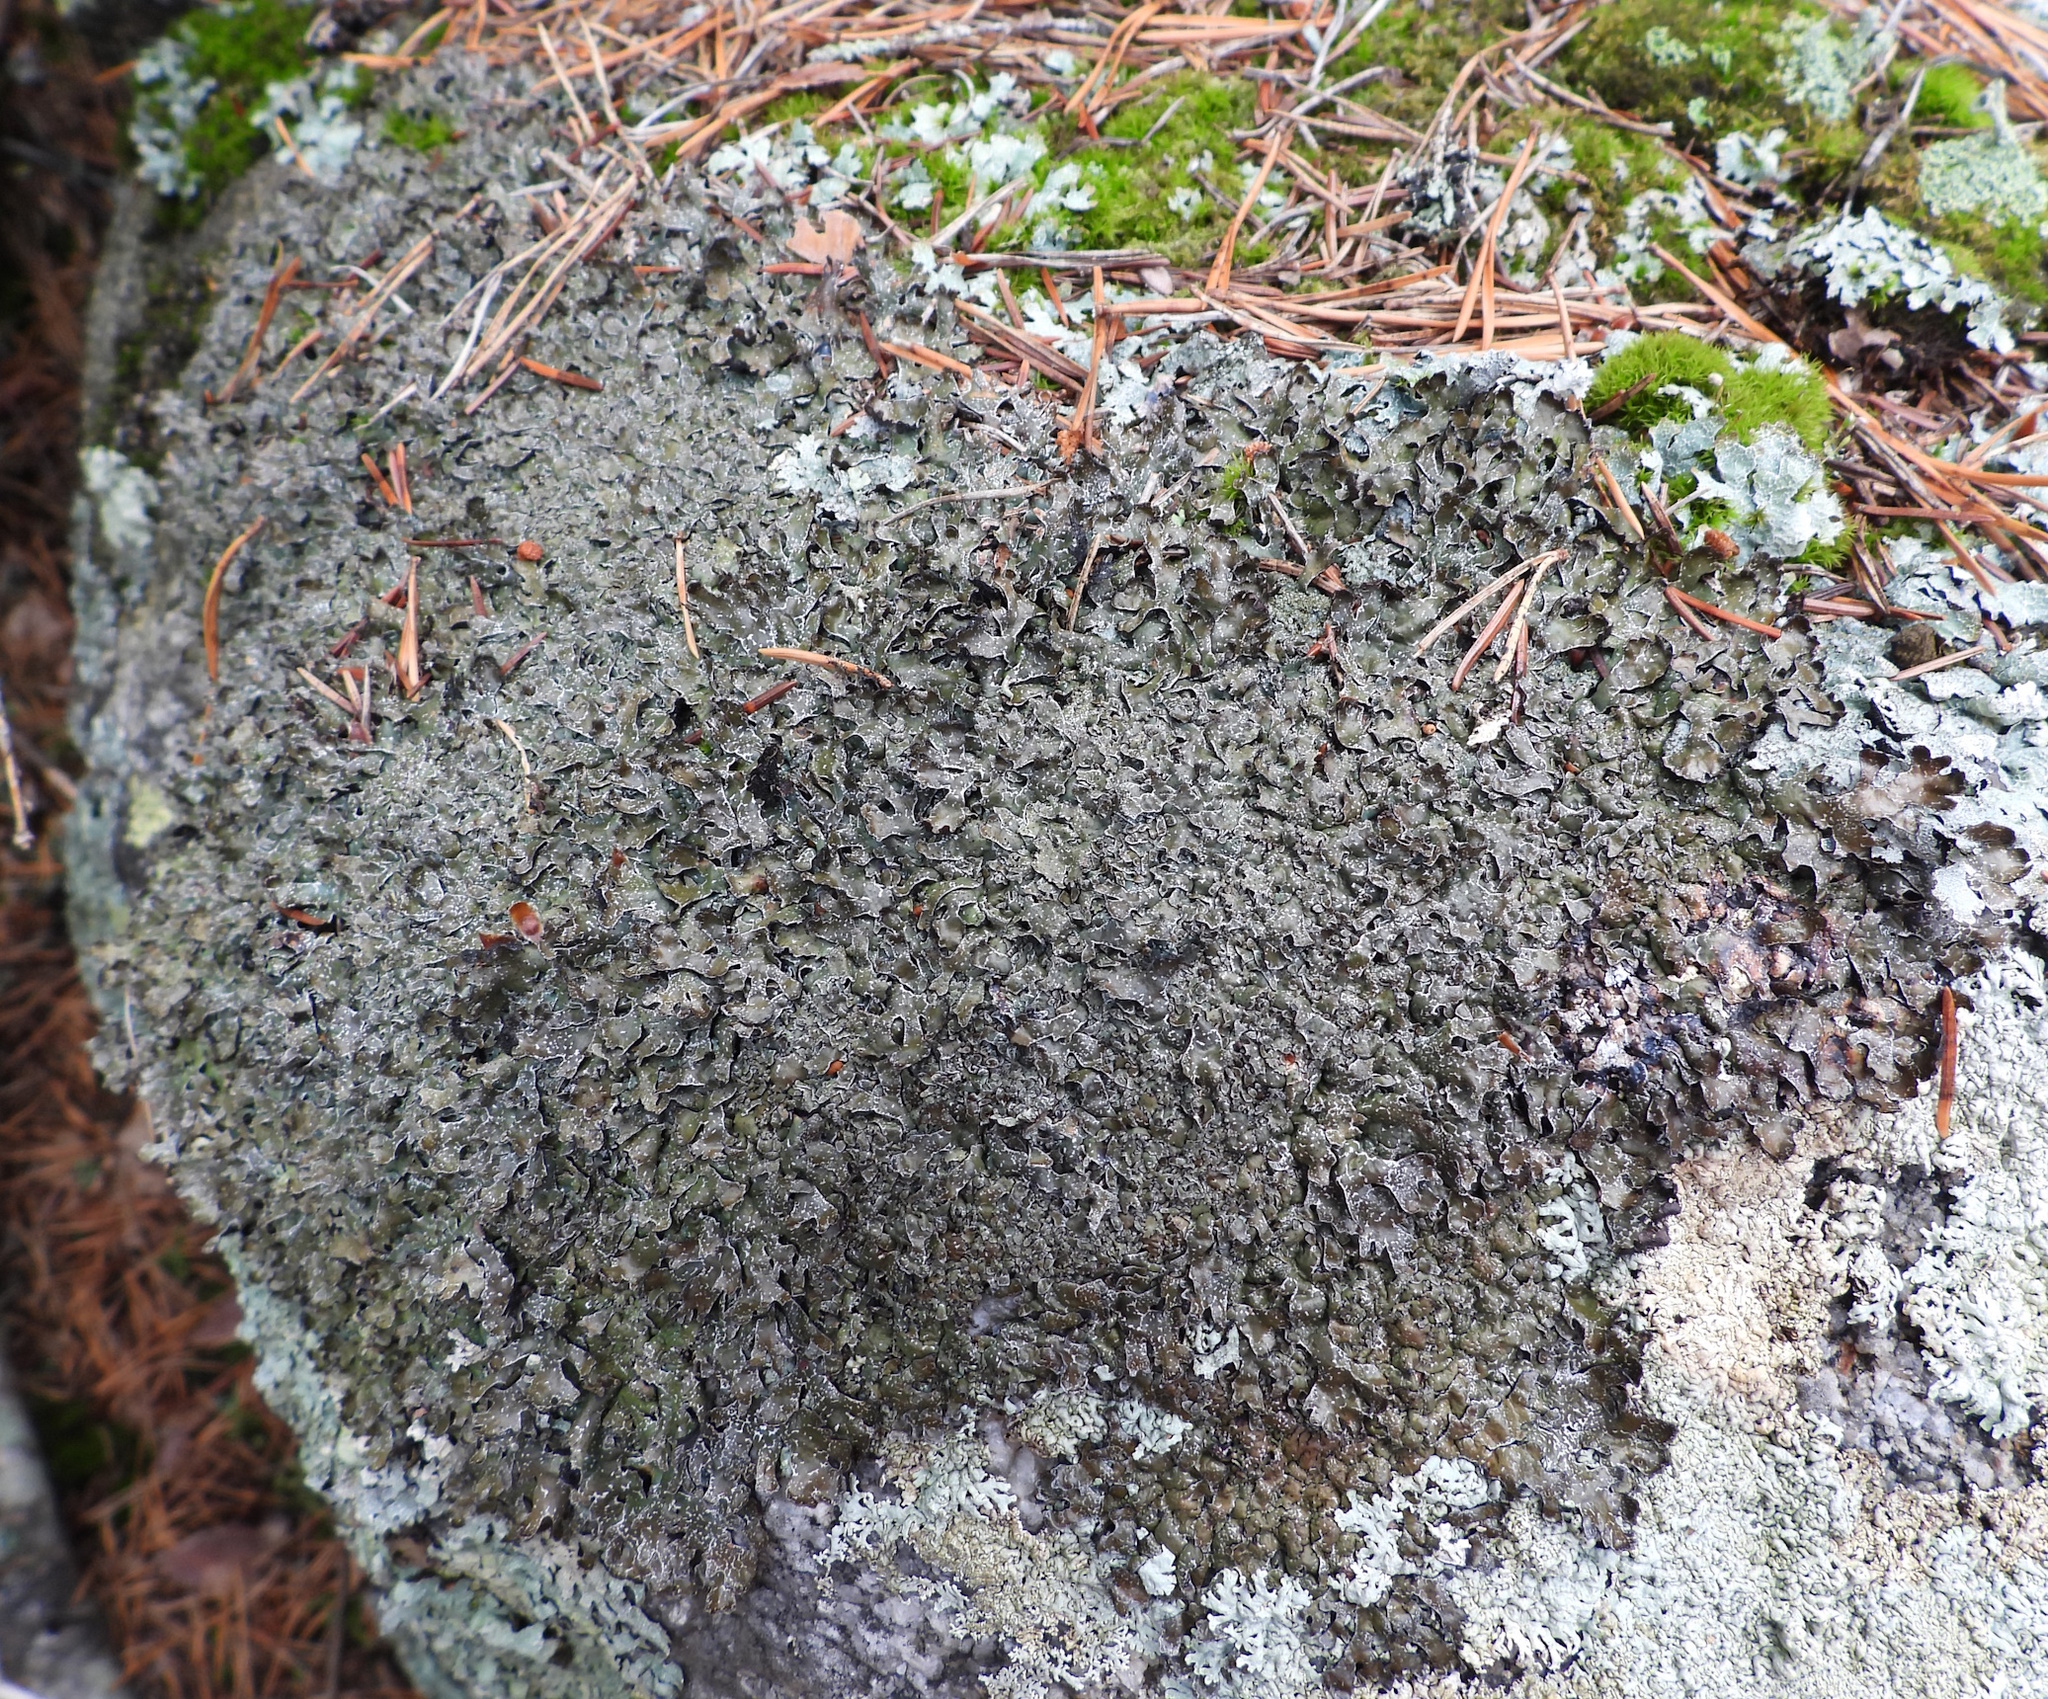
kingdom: Fungi
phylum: Ascomycota
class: Lecanoromycetes
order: Lecanorales
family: Parmeliaceae
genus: Parmelia
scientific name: Parmelia omphalodes
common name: Smoky crottle
